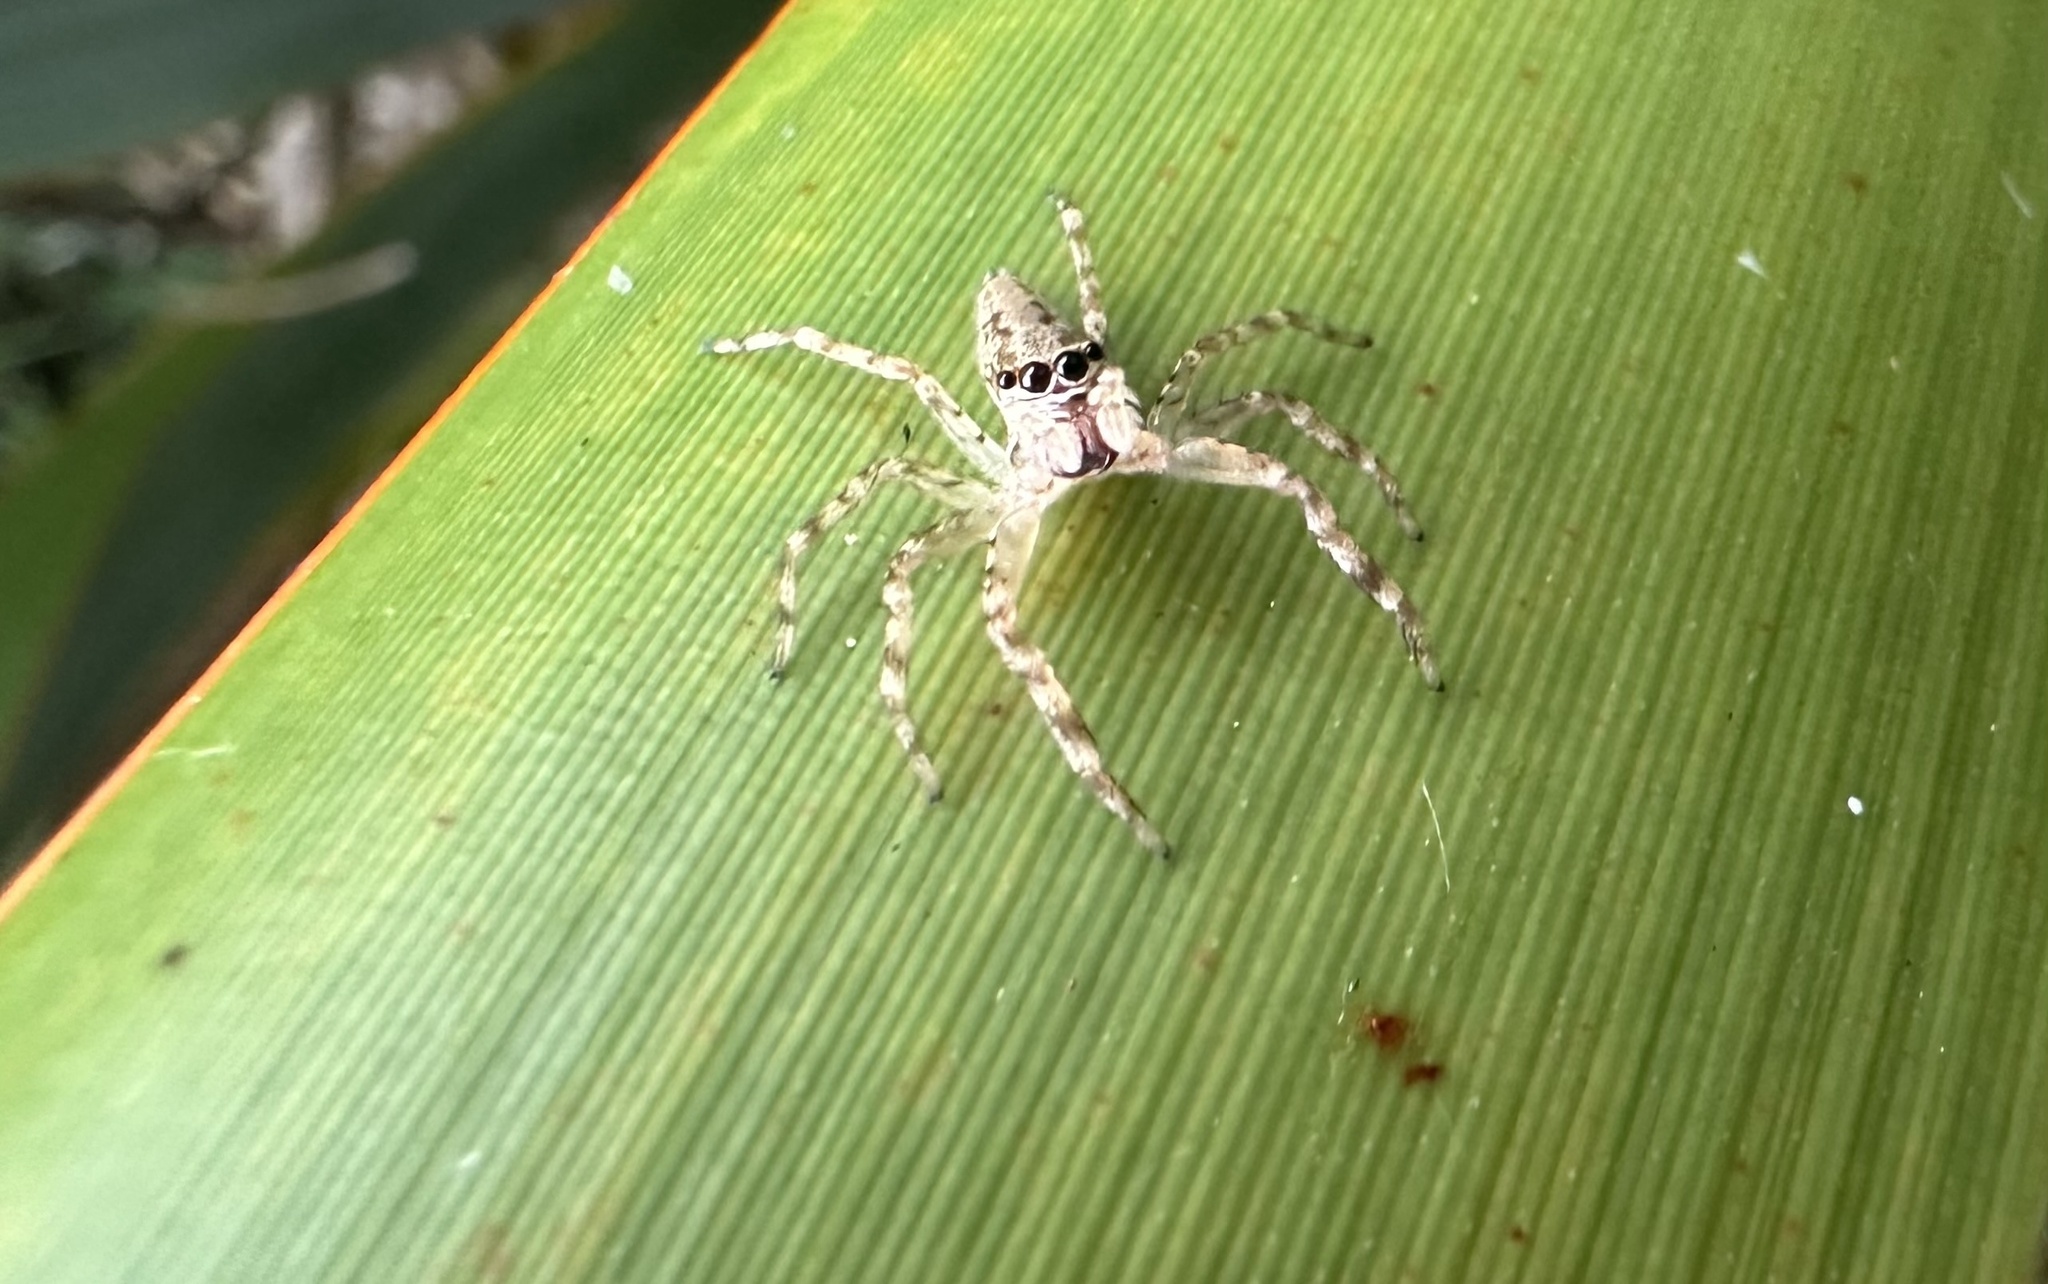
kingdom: Animalia
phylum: Arthropoda
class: Arachnida
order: Araneae
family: Salticidae
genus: Helpis
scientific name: Helpis minitabunda
